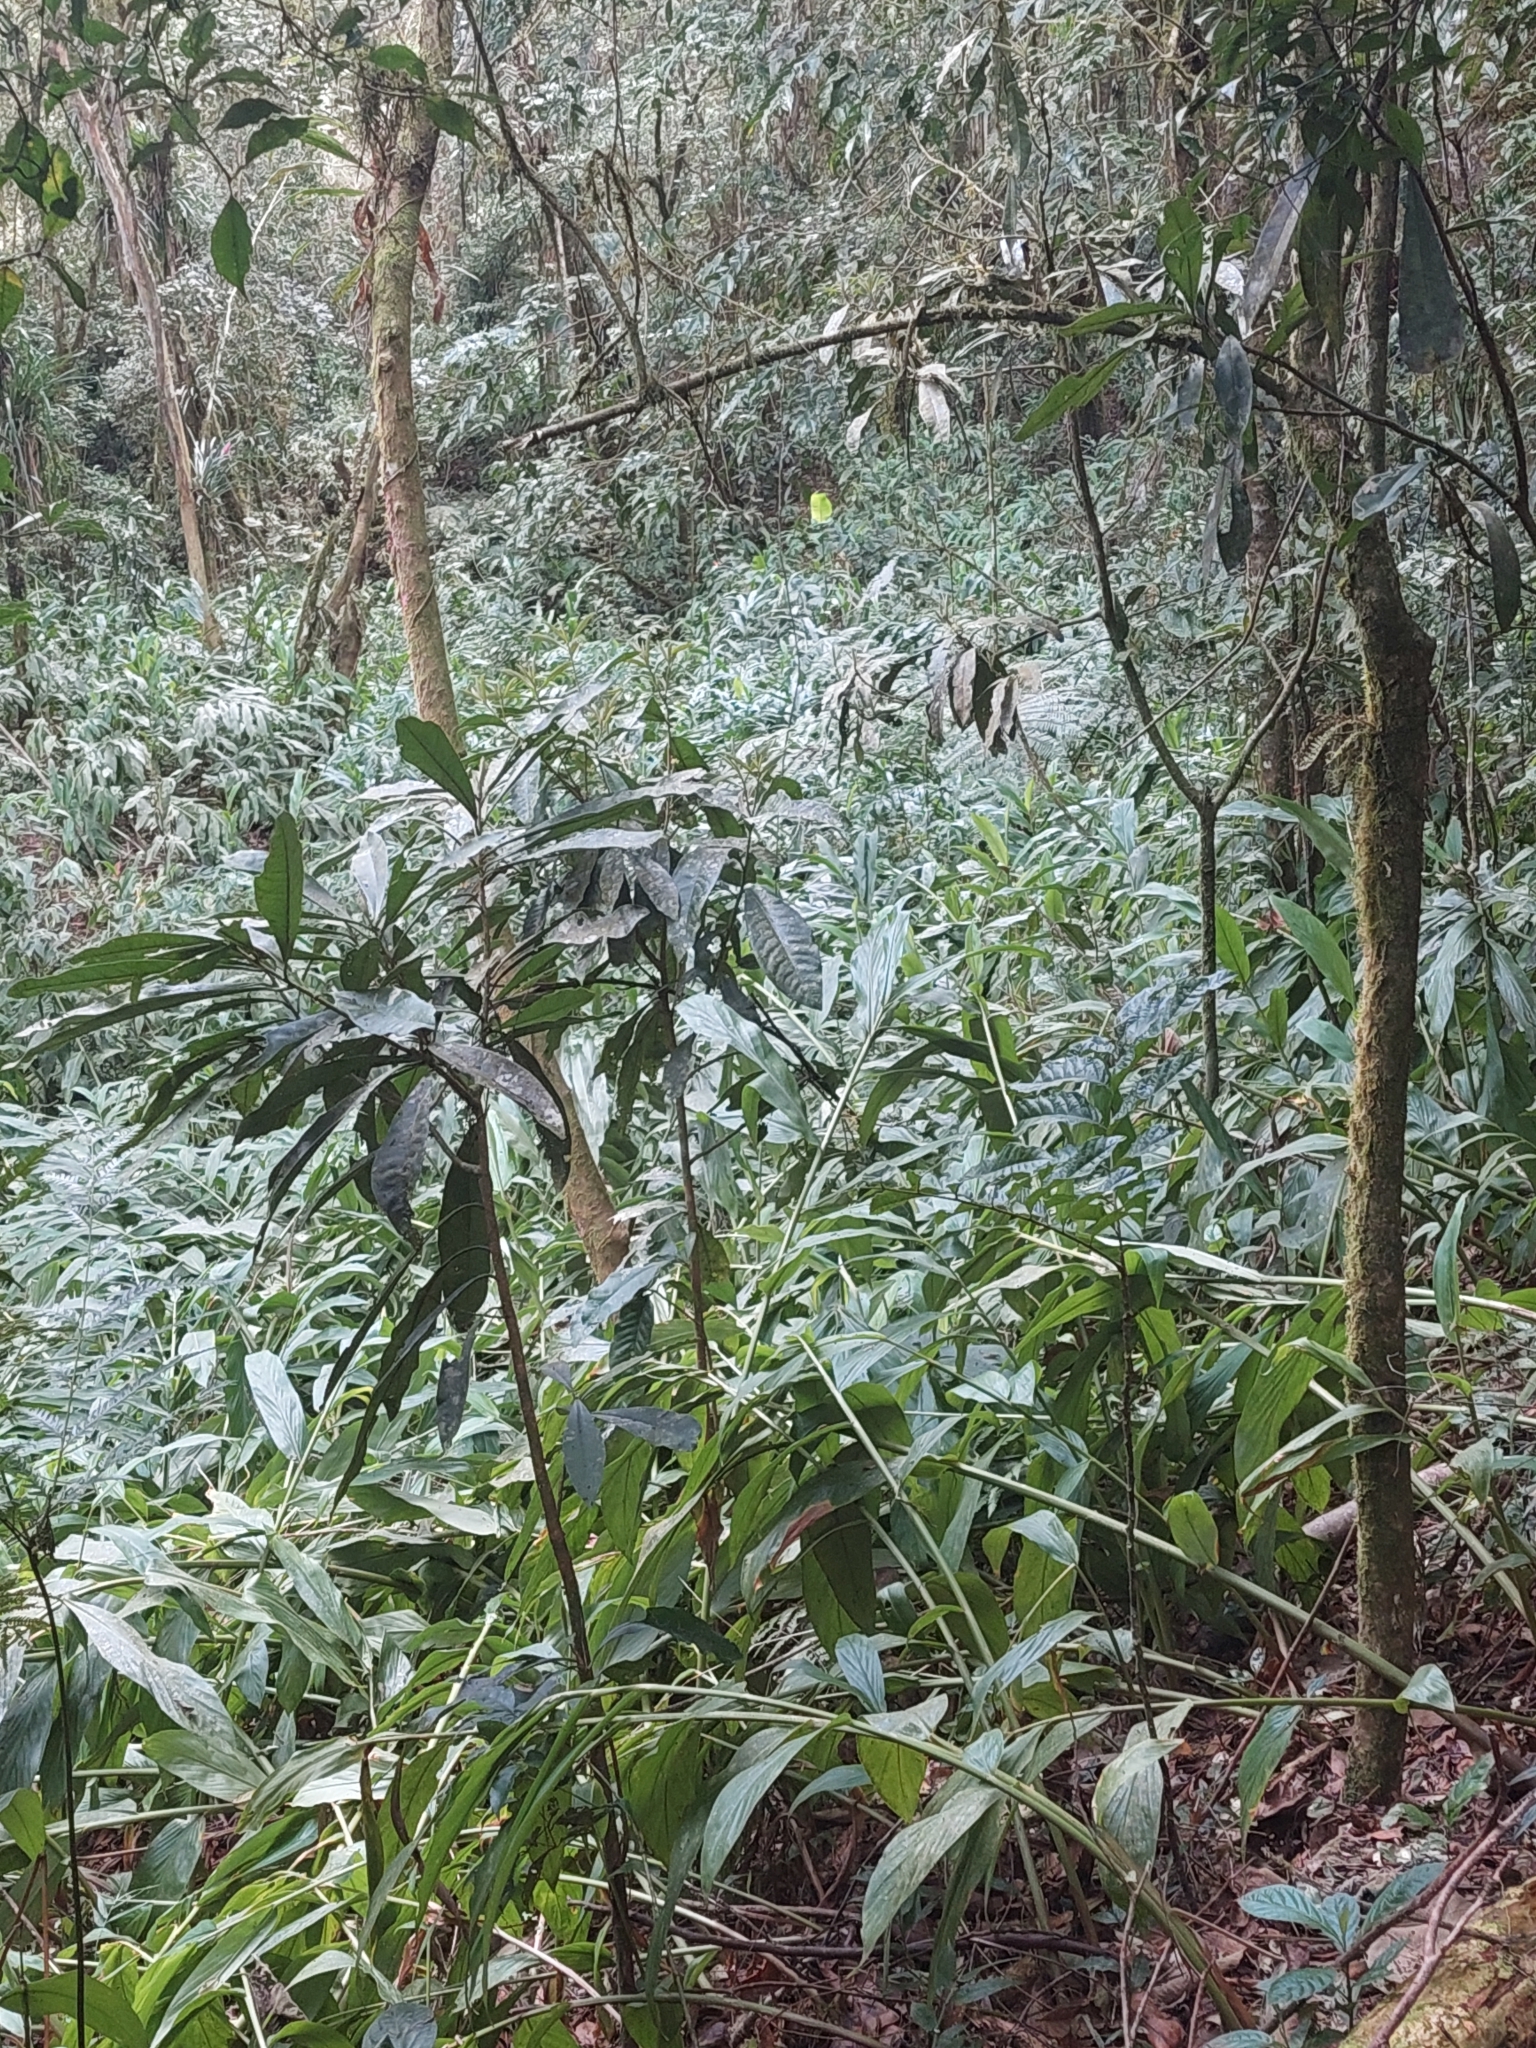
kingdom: Plantae
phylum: Tracheophyta
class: Liliopsida
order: Zingiberales
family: Zingiberaceae
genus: Hedychium
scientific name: Hedychium coronarium
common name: White garland-lily
